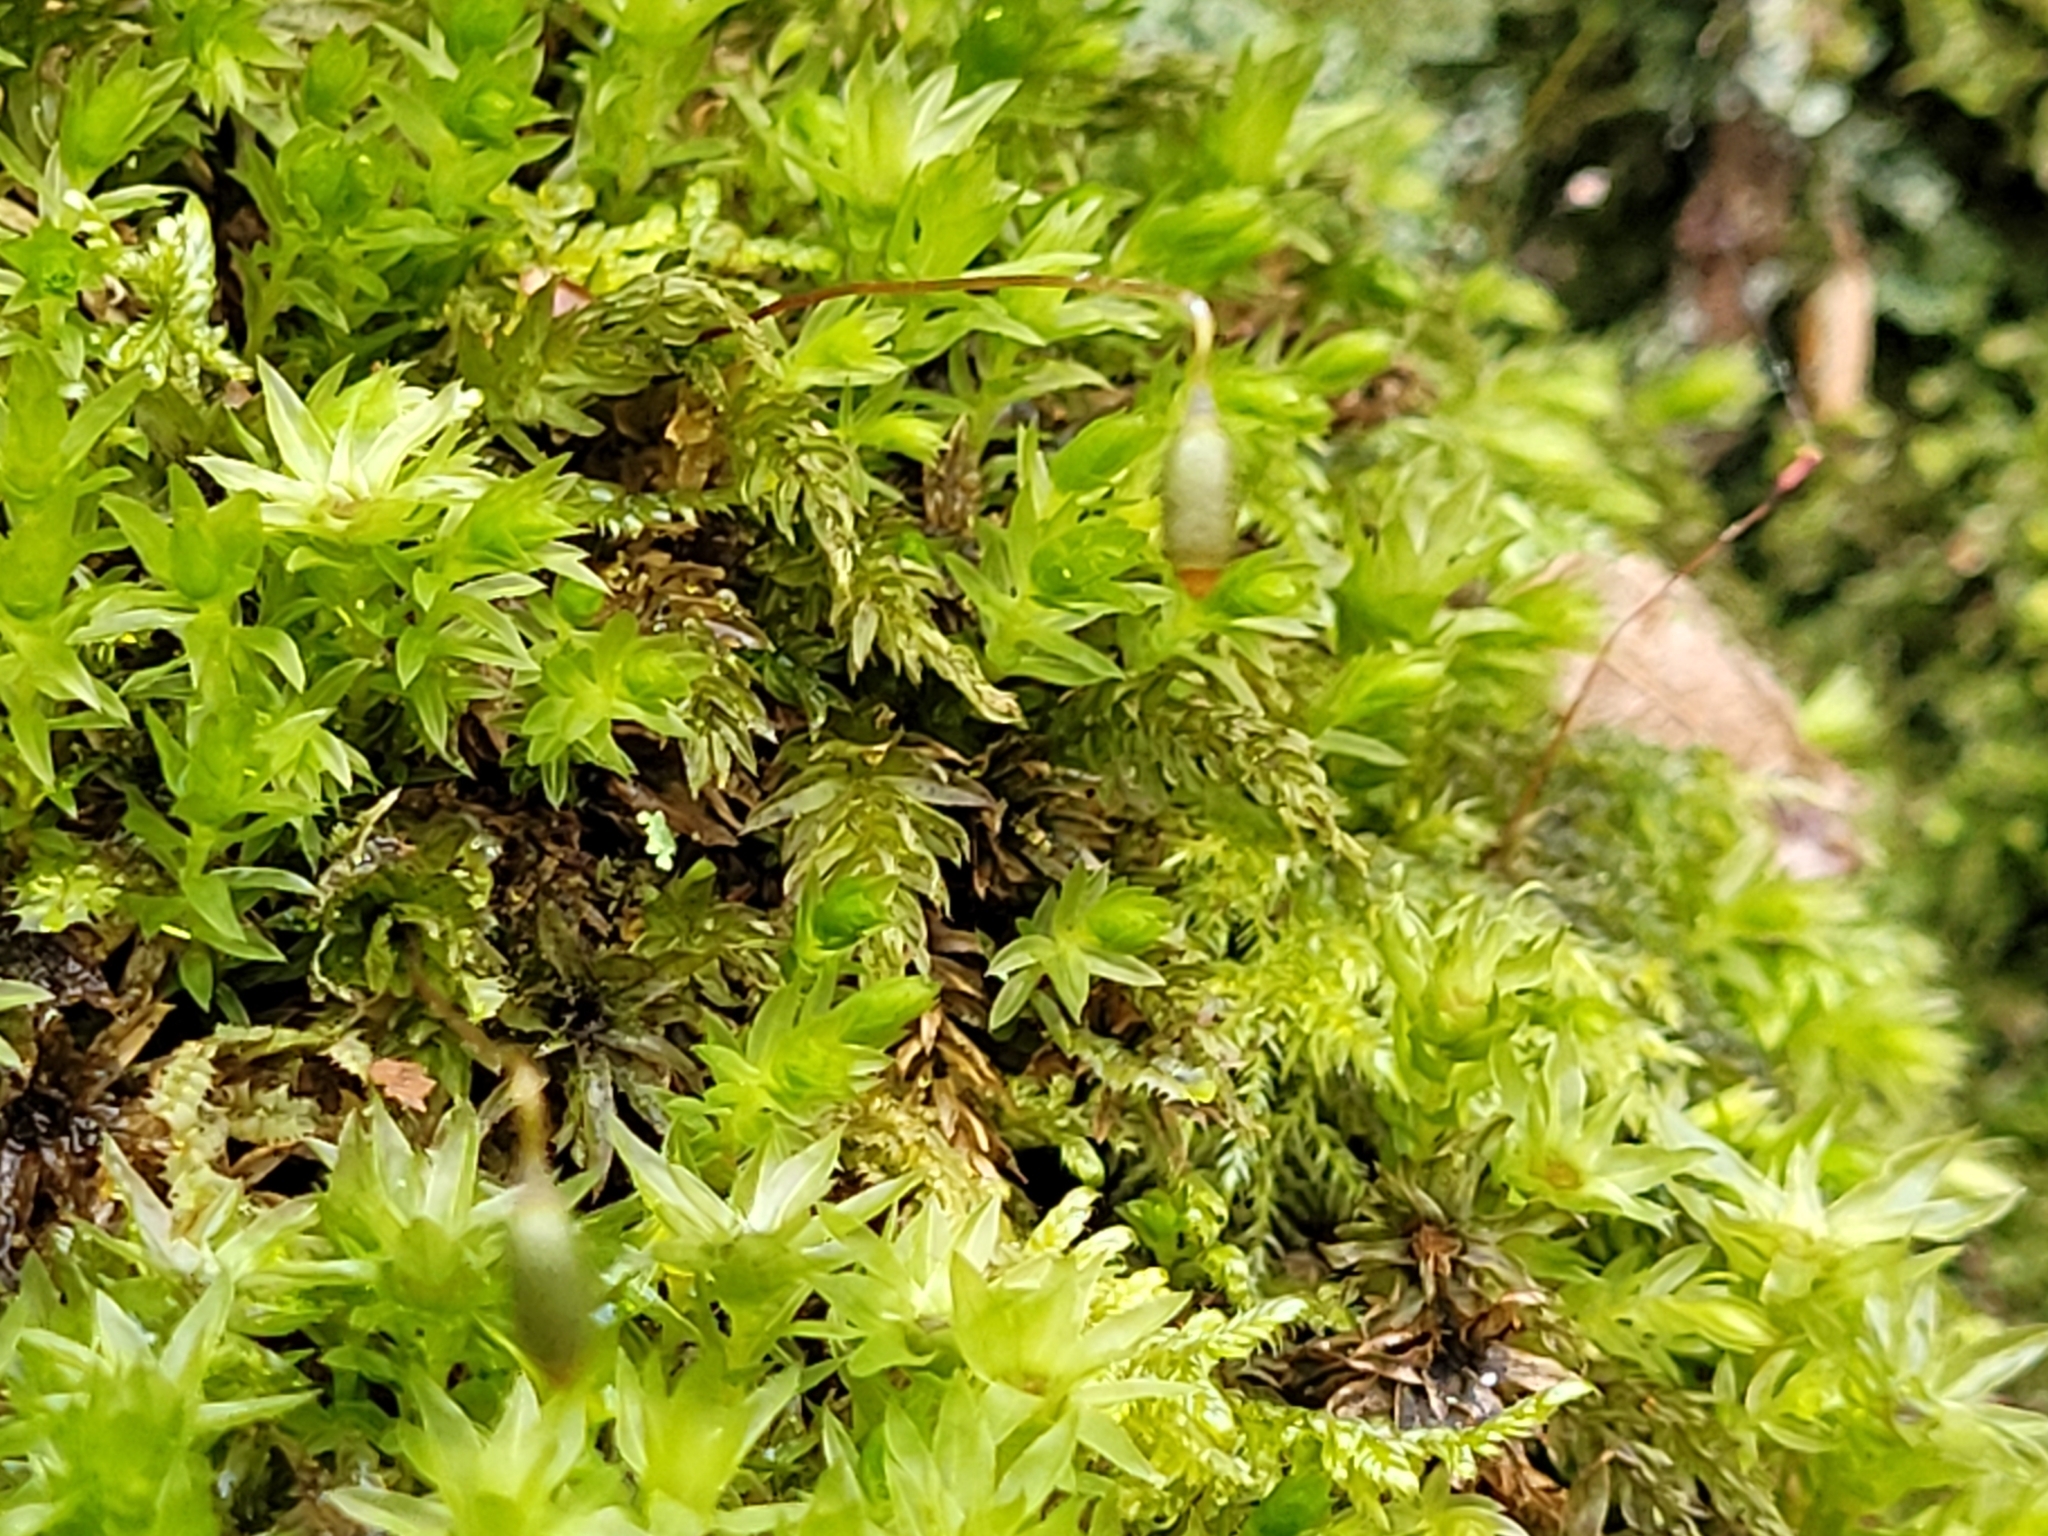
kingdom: Plantae
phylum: Bryophyta
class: Bryopsida
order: Bryales
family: Mniaceae
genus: Mnium
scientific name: Mnium hornum
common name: Swan's-neck leafy moss
